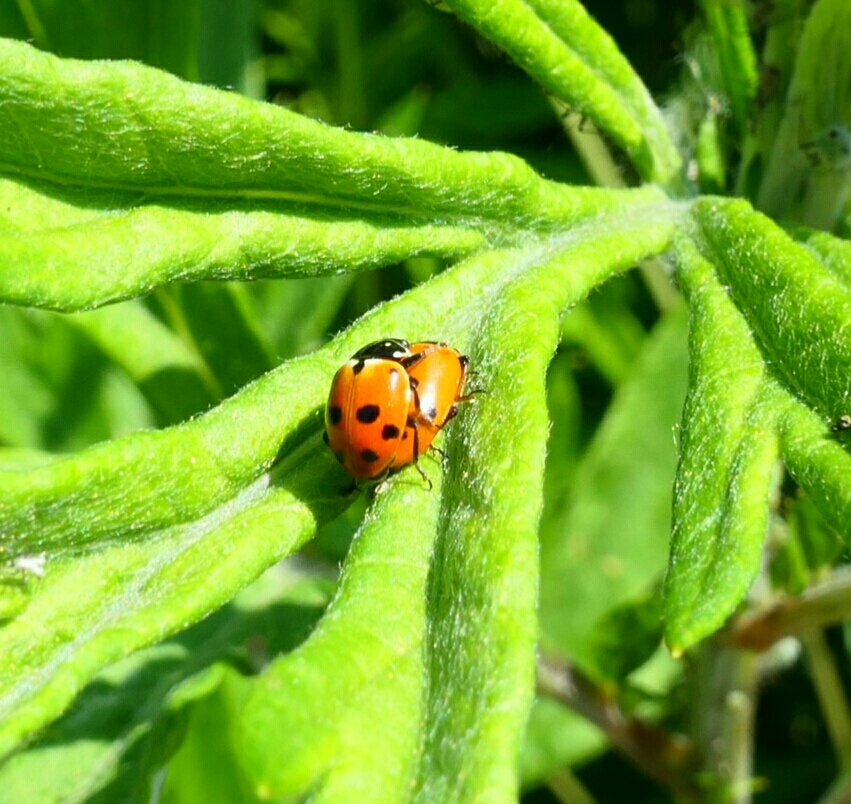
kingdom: Animalia
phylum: Arthropoda
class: Insecta
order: Coleoptera
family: Coccinellidae
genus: Hippodamia
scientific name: Hippodamia variegata
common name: Ladybird beetle
